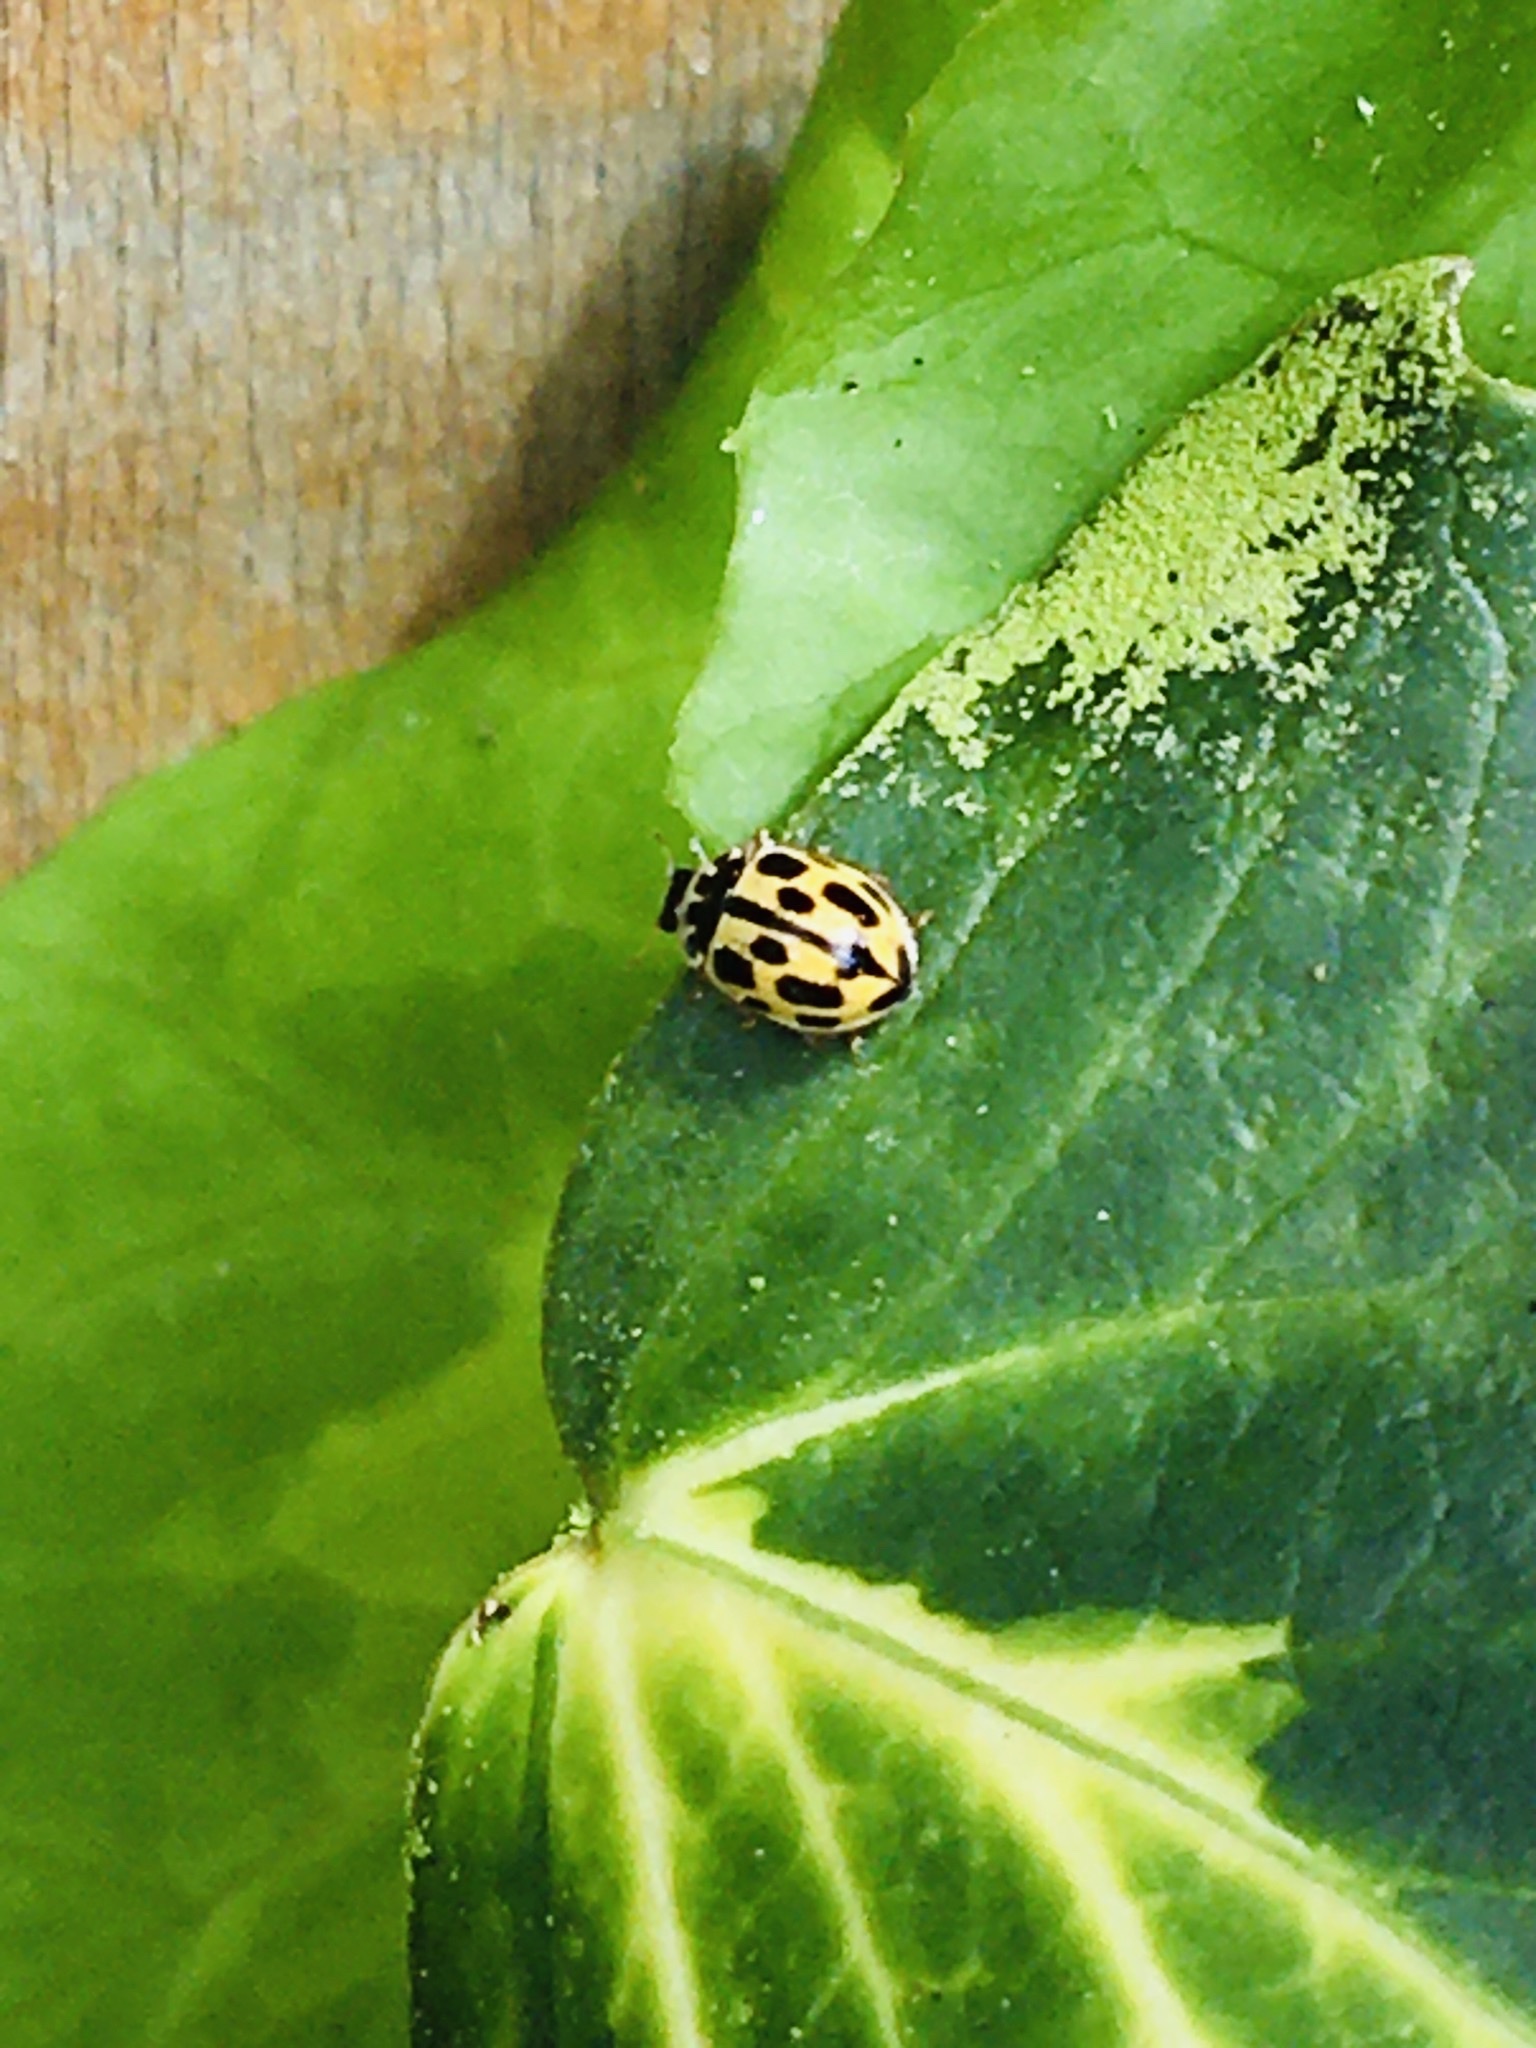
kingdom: Animalia
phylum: Arthropoda
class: Insecta
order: Coleoptera
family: Coccinellidae
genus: Propylaea
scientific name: Propylaea quatuordecimpunctata
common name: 14-spotted ladybird beetle
